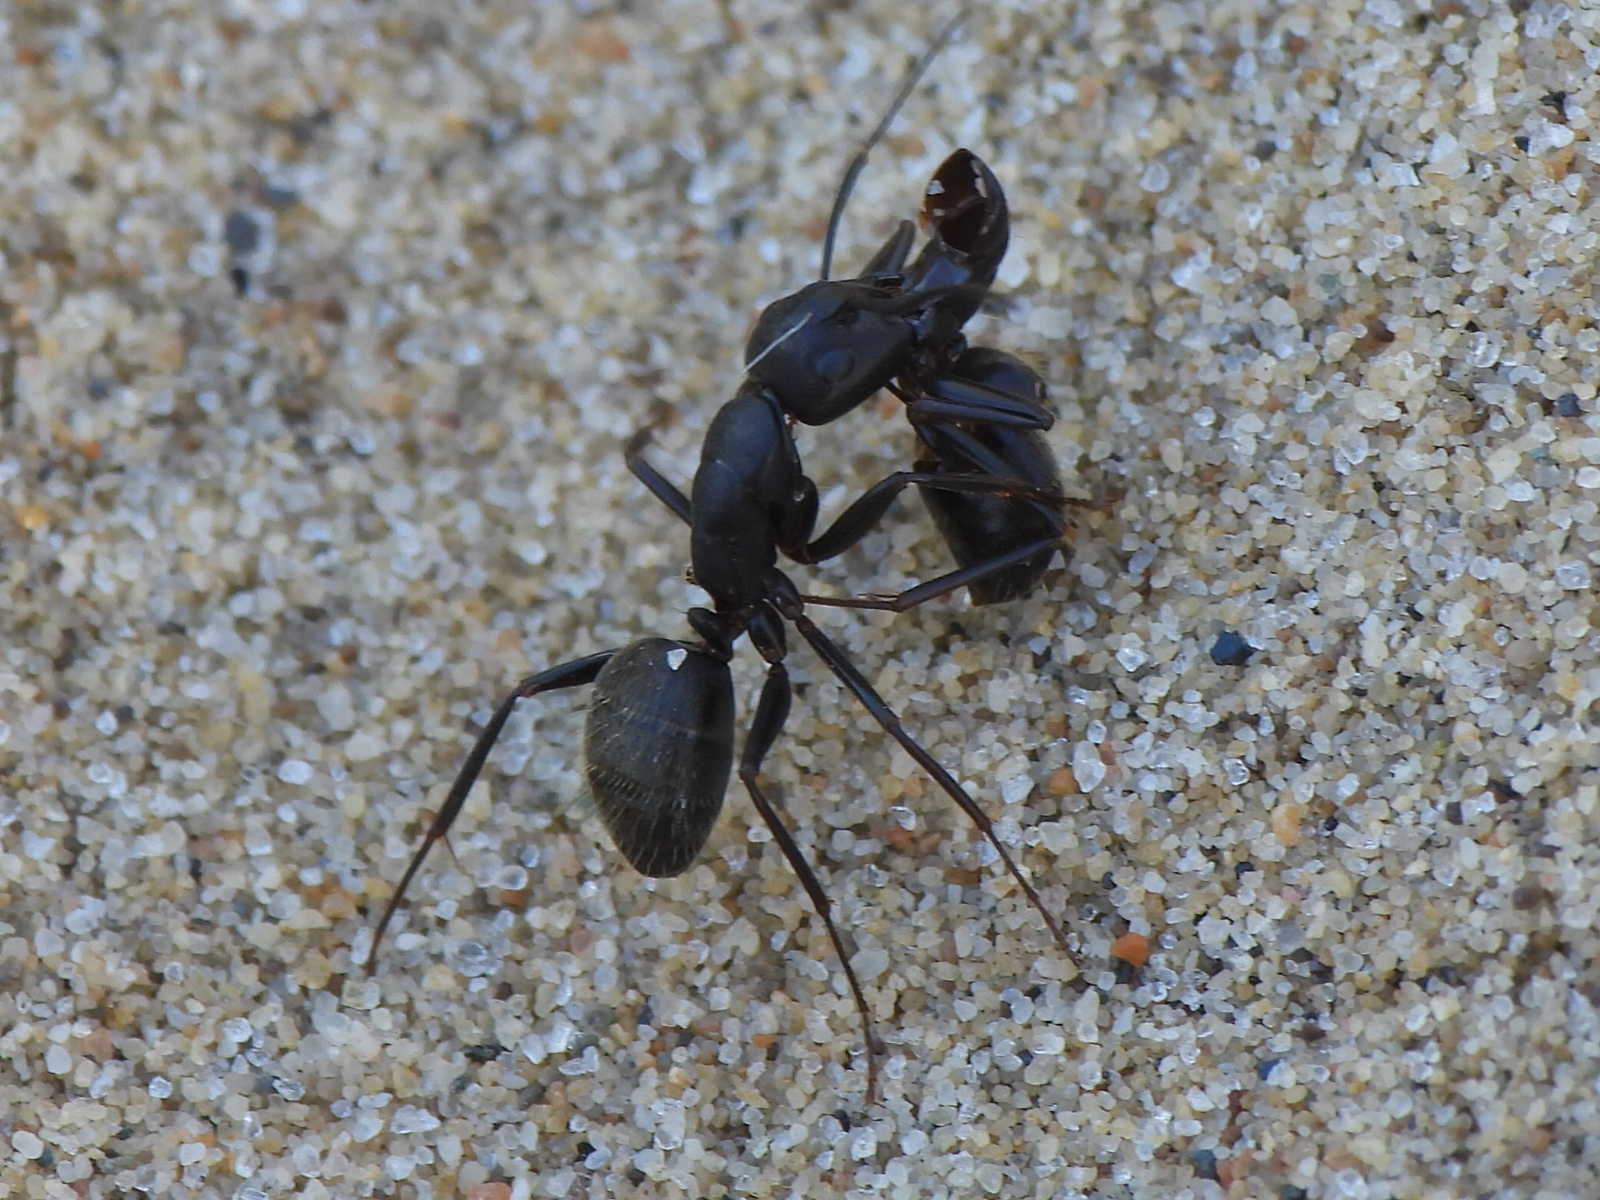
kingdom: Animalia
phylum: Arthropoda
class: Insecta
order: Hymenoptera
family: Formicidae
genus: Camponotus
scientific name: Camponotus pennsylvanicus
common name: Black carpenter ant
